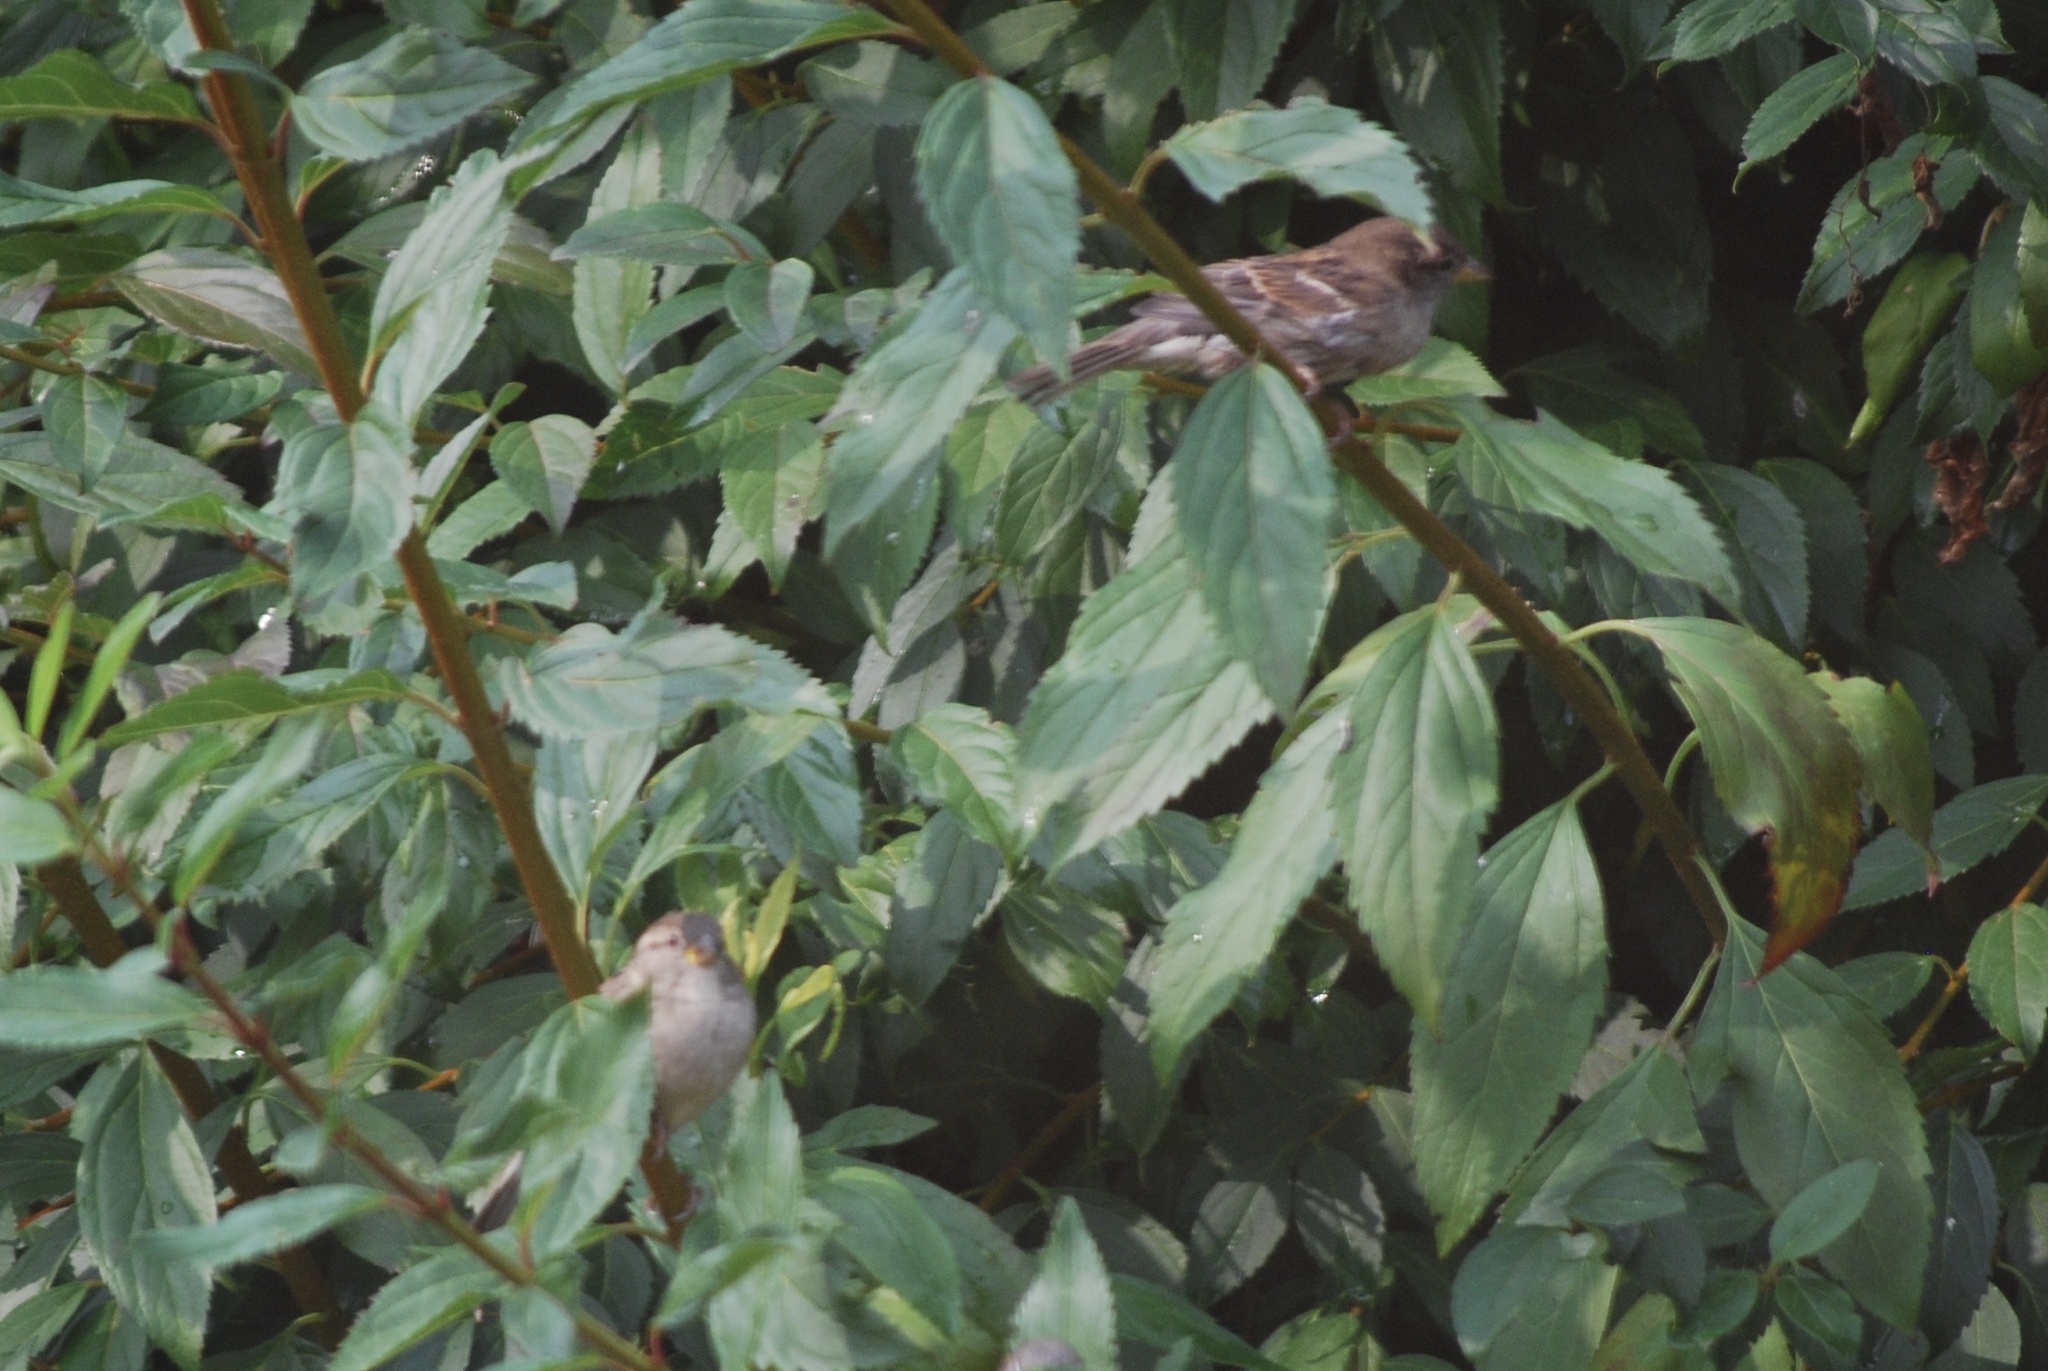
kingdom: Animalia
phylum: Chordata
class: Aves
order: Passeriformes
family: Passeridae
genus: Passer
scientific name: Passer domesticus
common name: House sparrow
